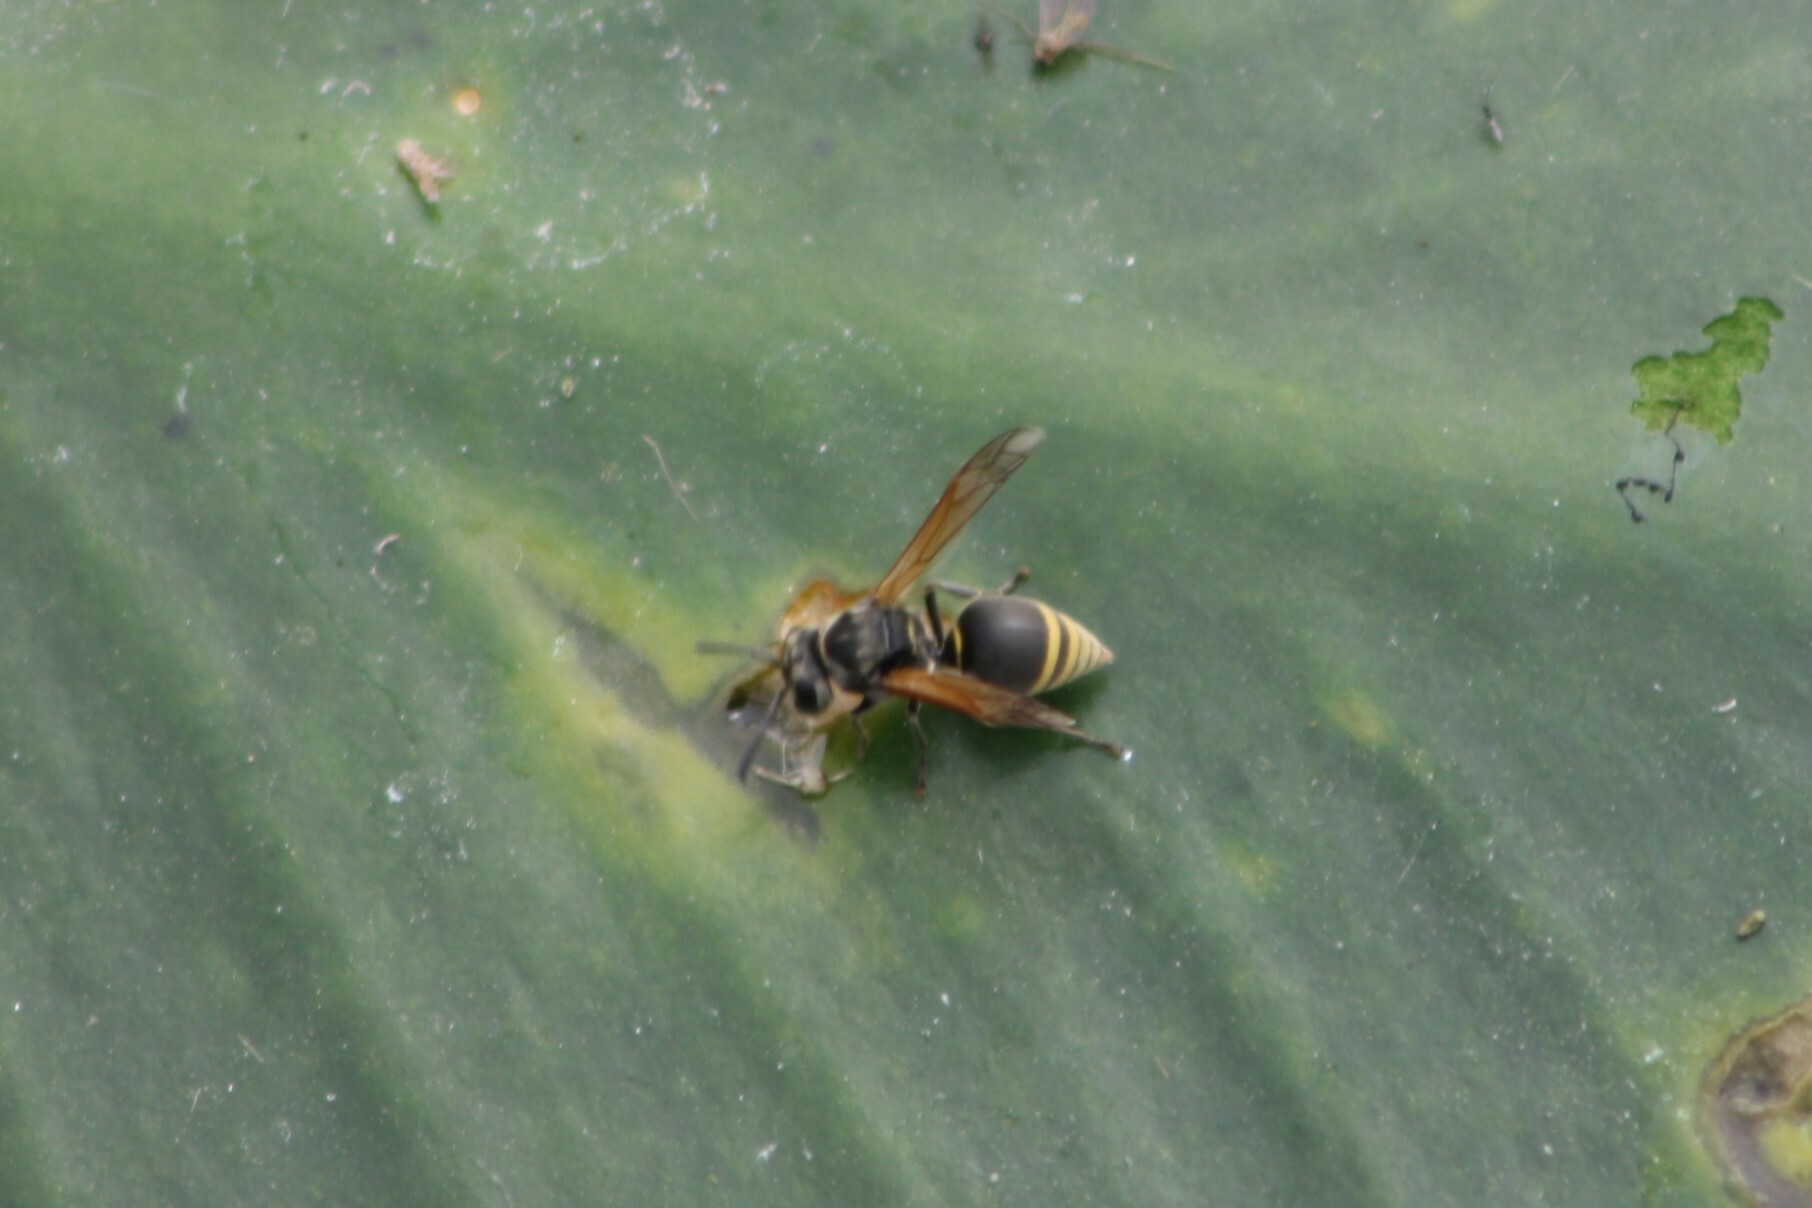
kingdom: Animalia
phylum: Arthropoda
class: Insecta
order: Hymenoptera
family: Vespidae
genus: Brachygastra
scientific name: Brachygastra mellifica
